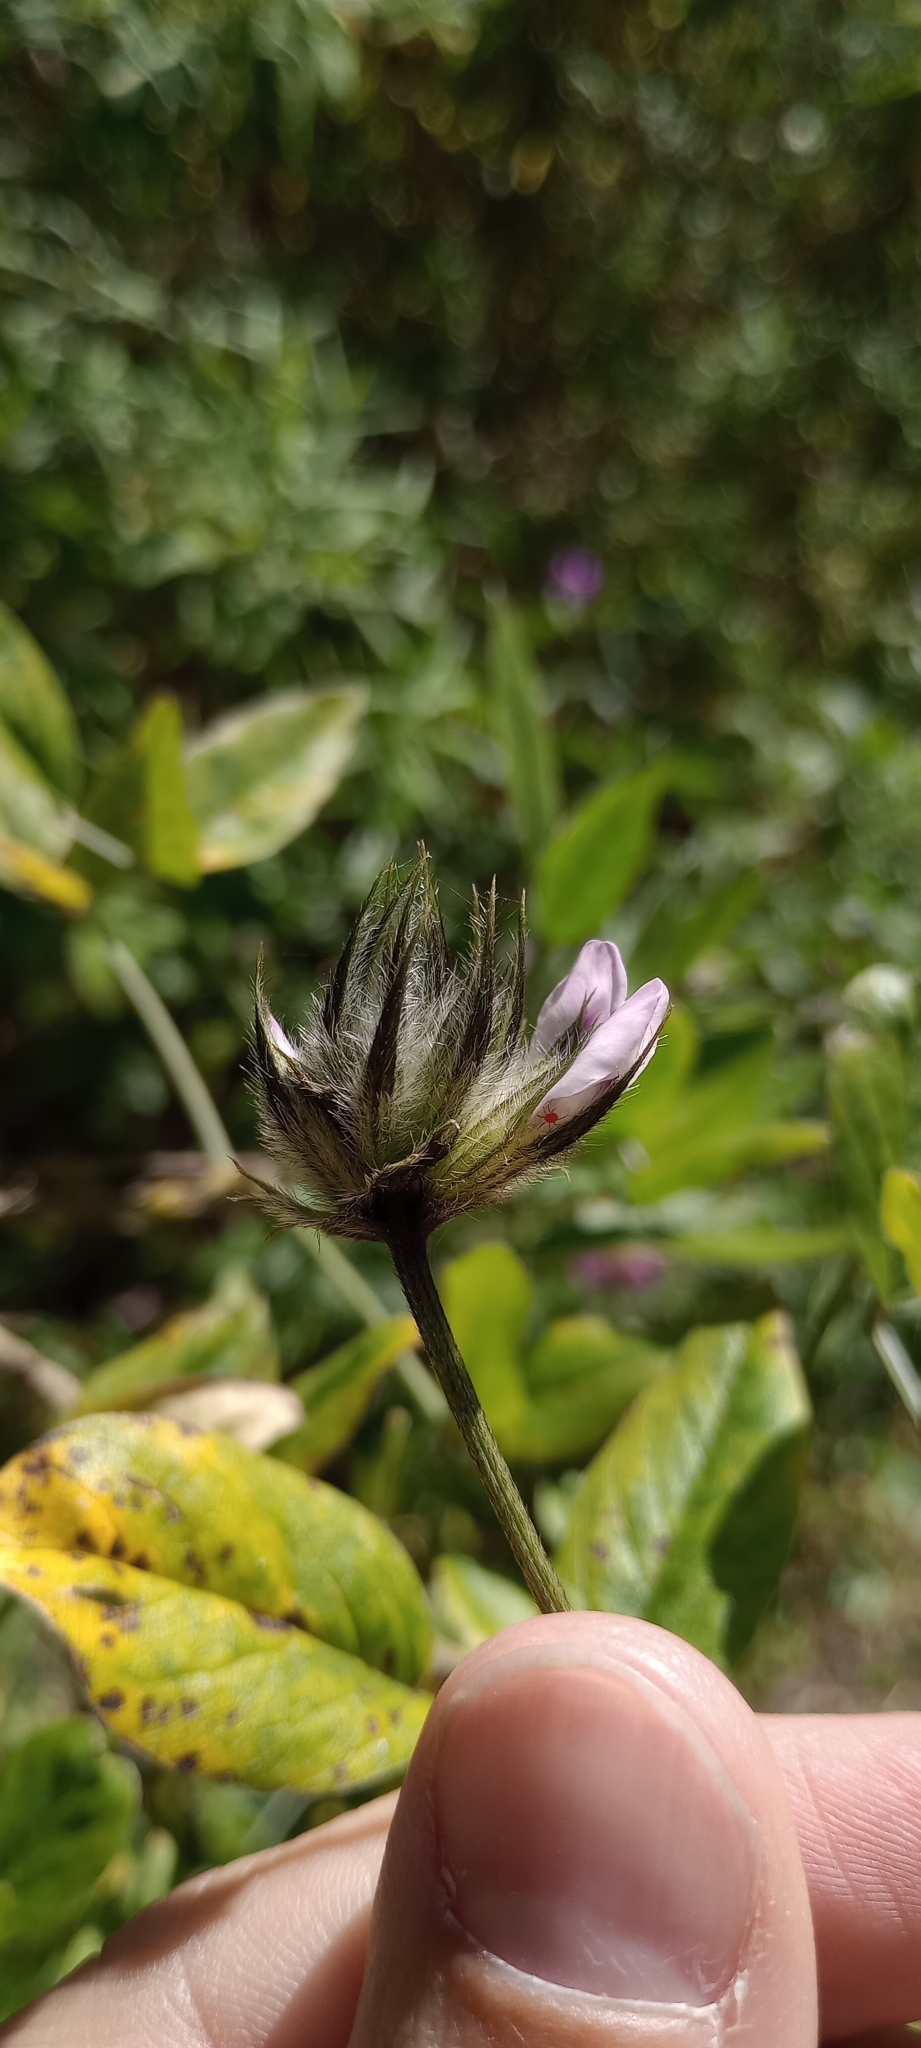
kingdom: Plantae
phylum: Tracheophyta
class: Magnoliopsida
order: Fabales
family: Fabaceae
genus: Bituminaria
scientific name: Bituminaria bituminosa
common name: Arabian pea
